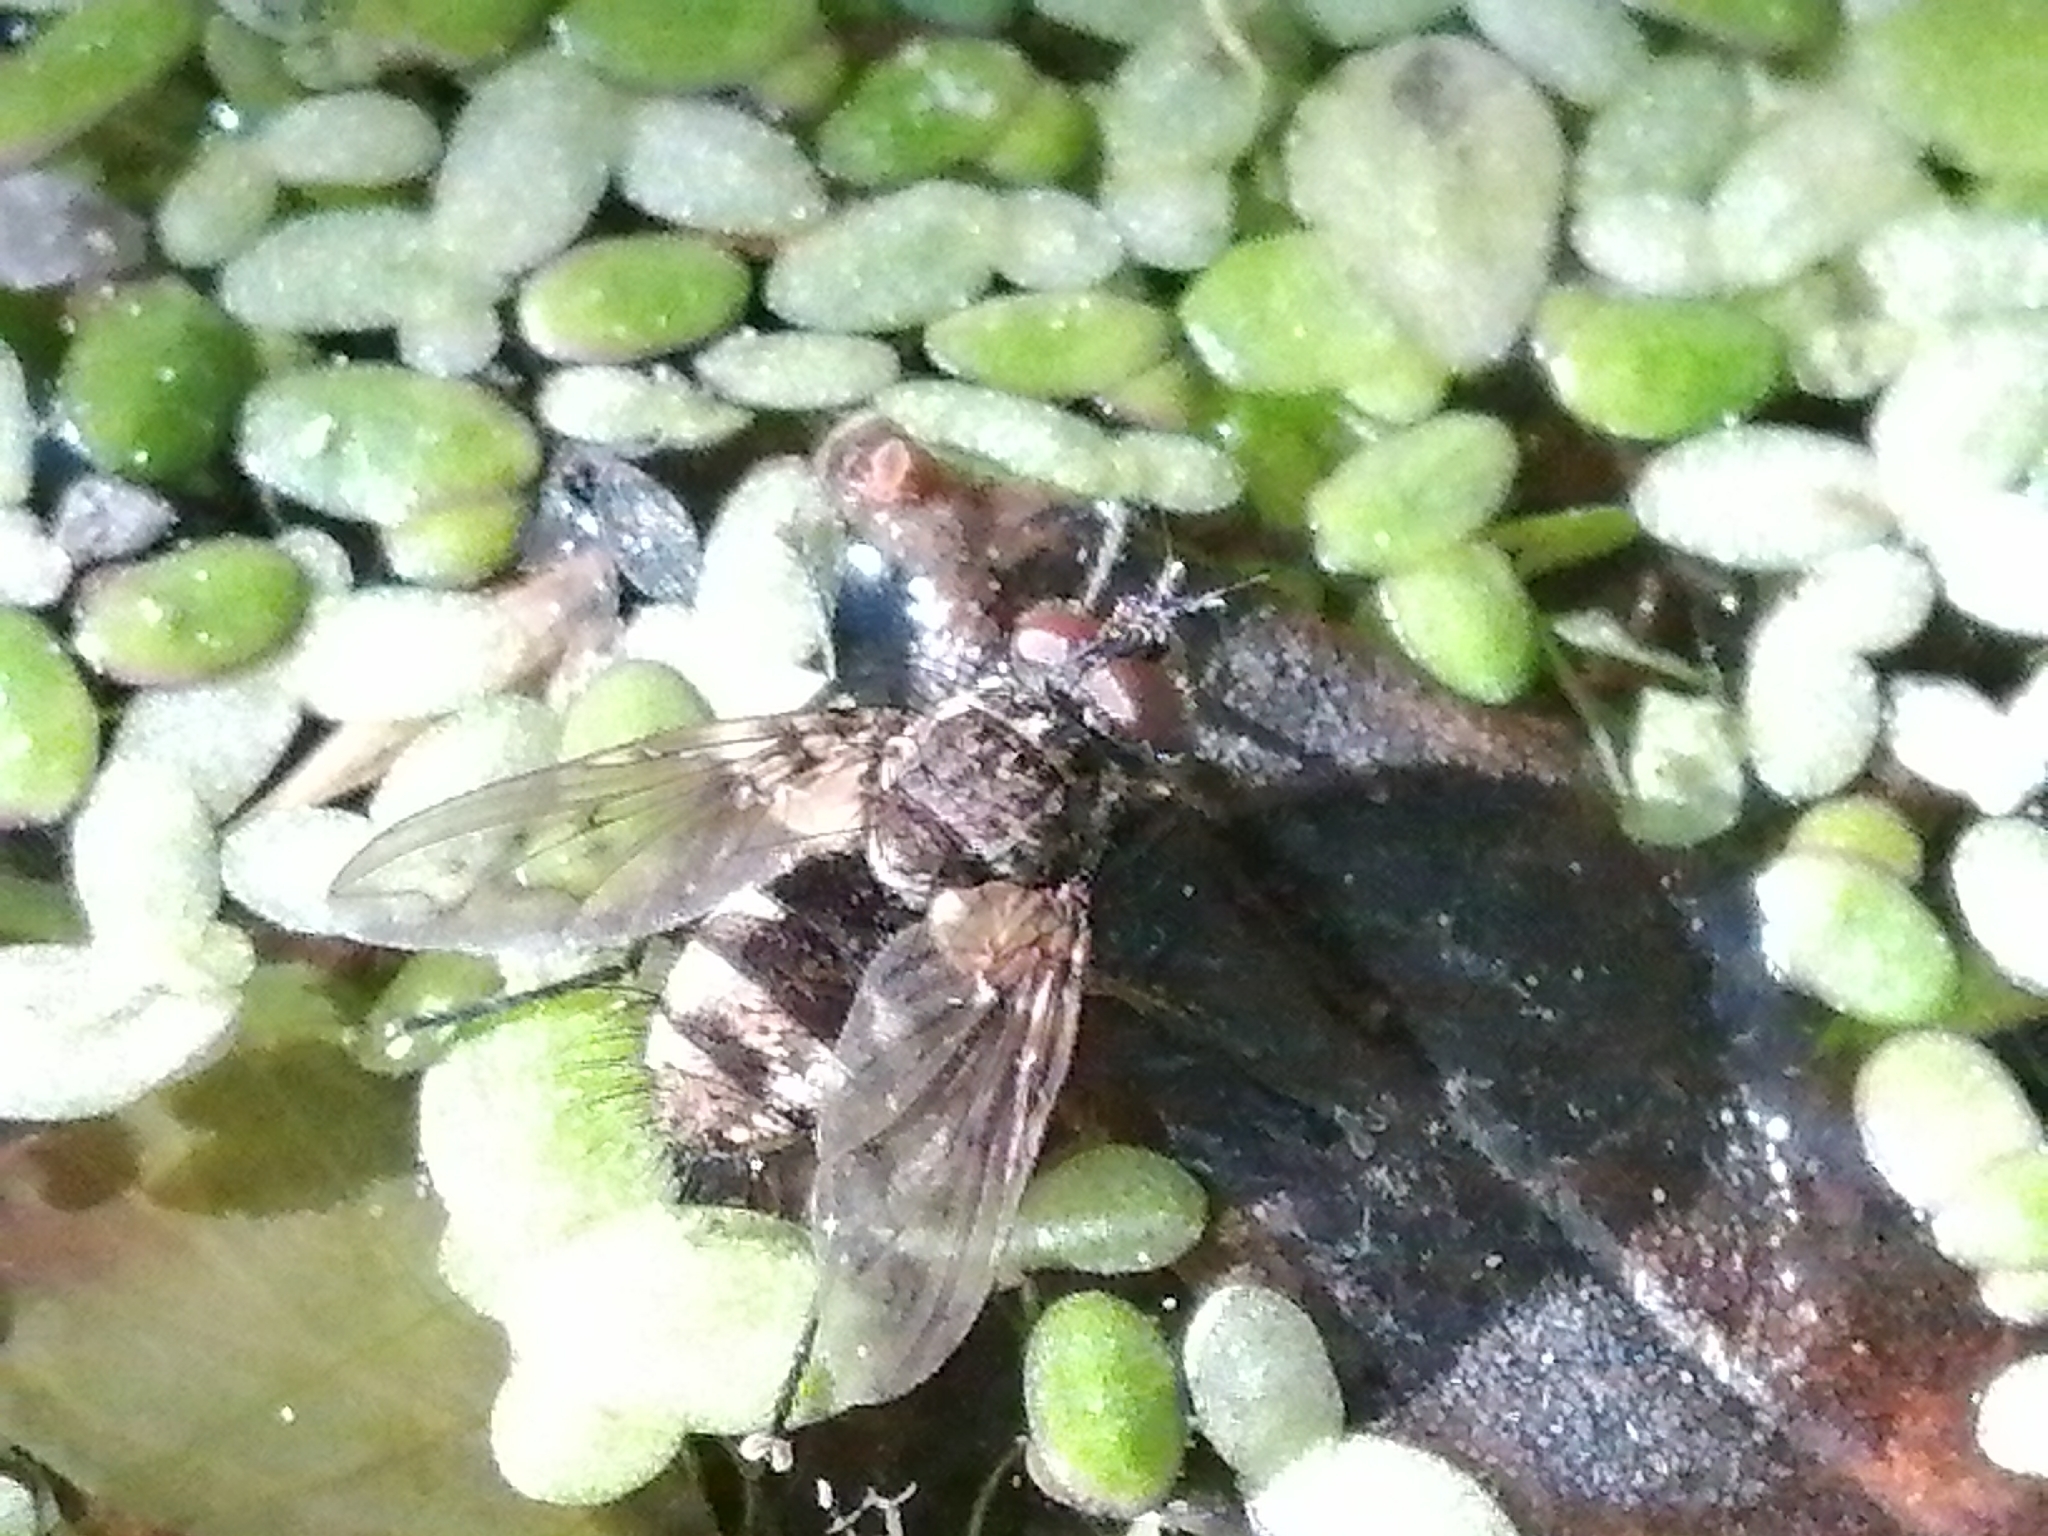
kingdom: Animalia
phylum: Arthropoda
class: Insecta
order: Diptera
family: Tachinidae
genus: Mallochomacquartia
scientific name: Mallochomacquartia vexata
